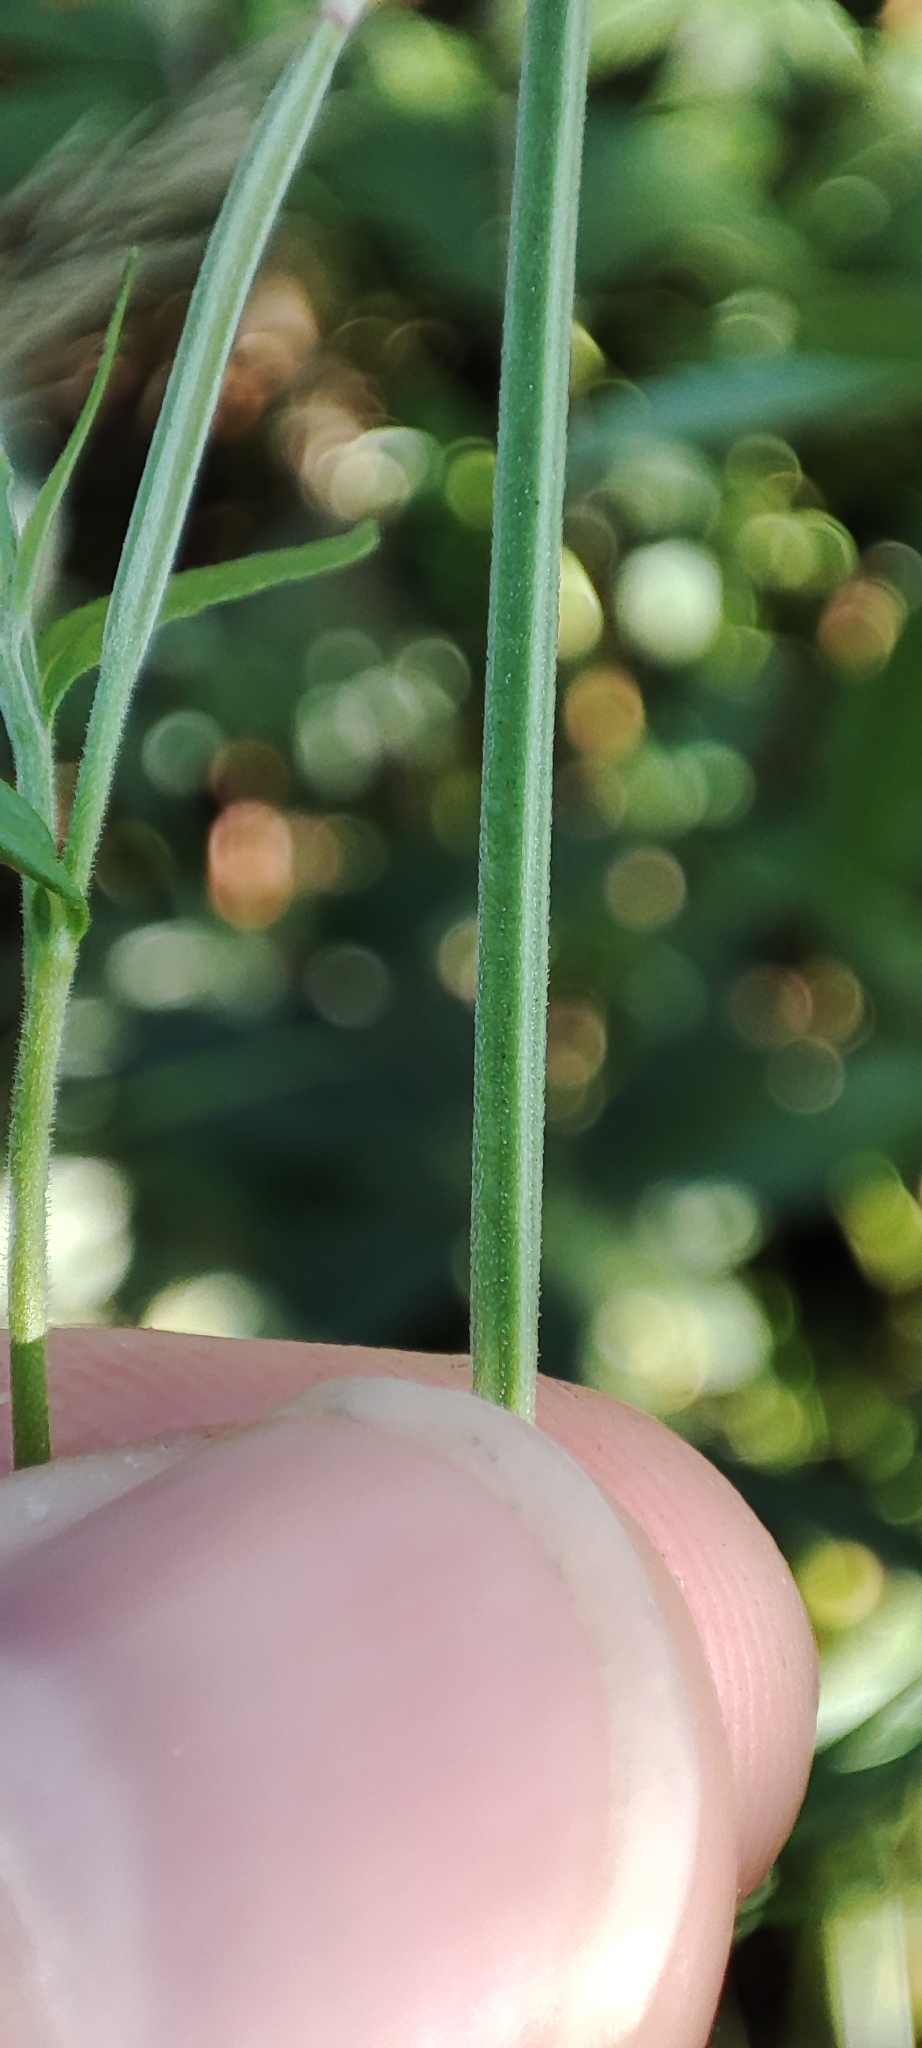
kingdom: Plantae
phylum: Tracheophyta
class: Magnoliopsida
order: Myrtales
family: Onagraceae
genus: Epilobium
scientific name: Epilobium palustre
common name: Marsh willowherb
